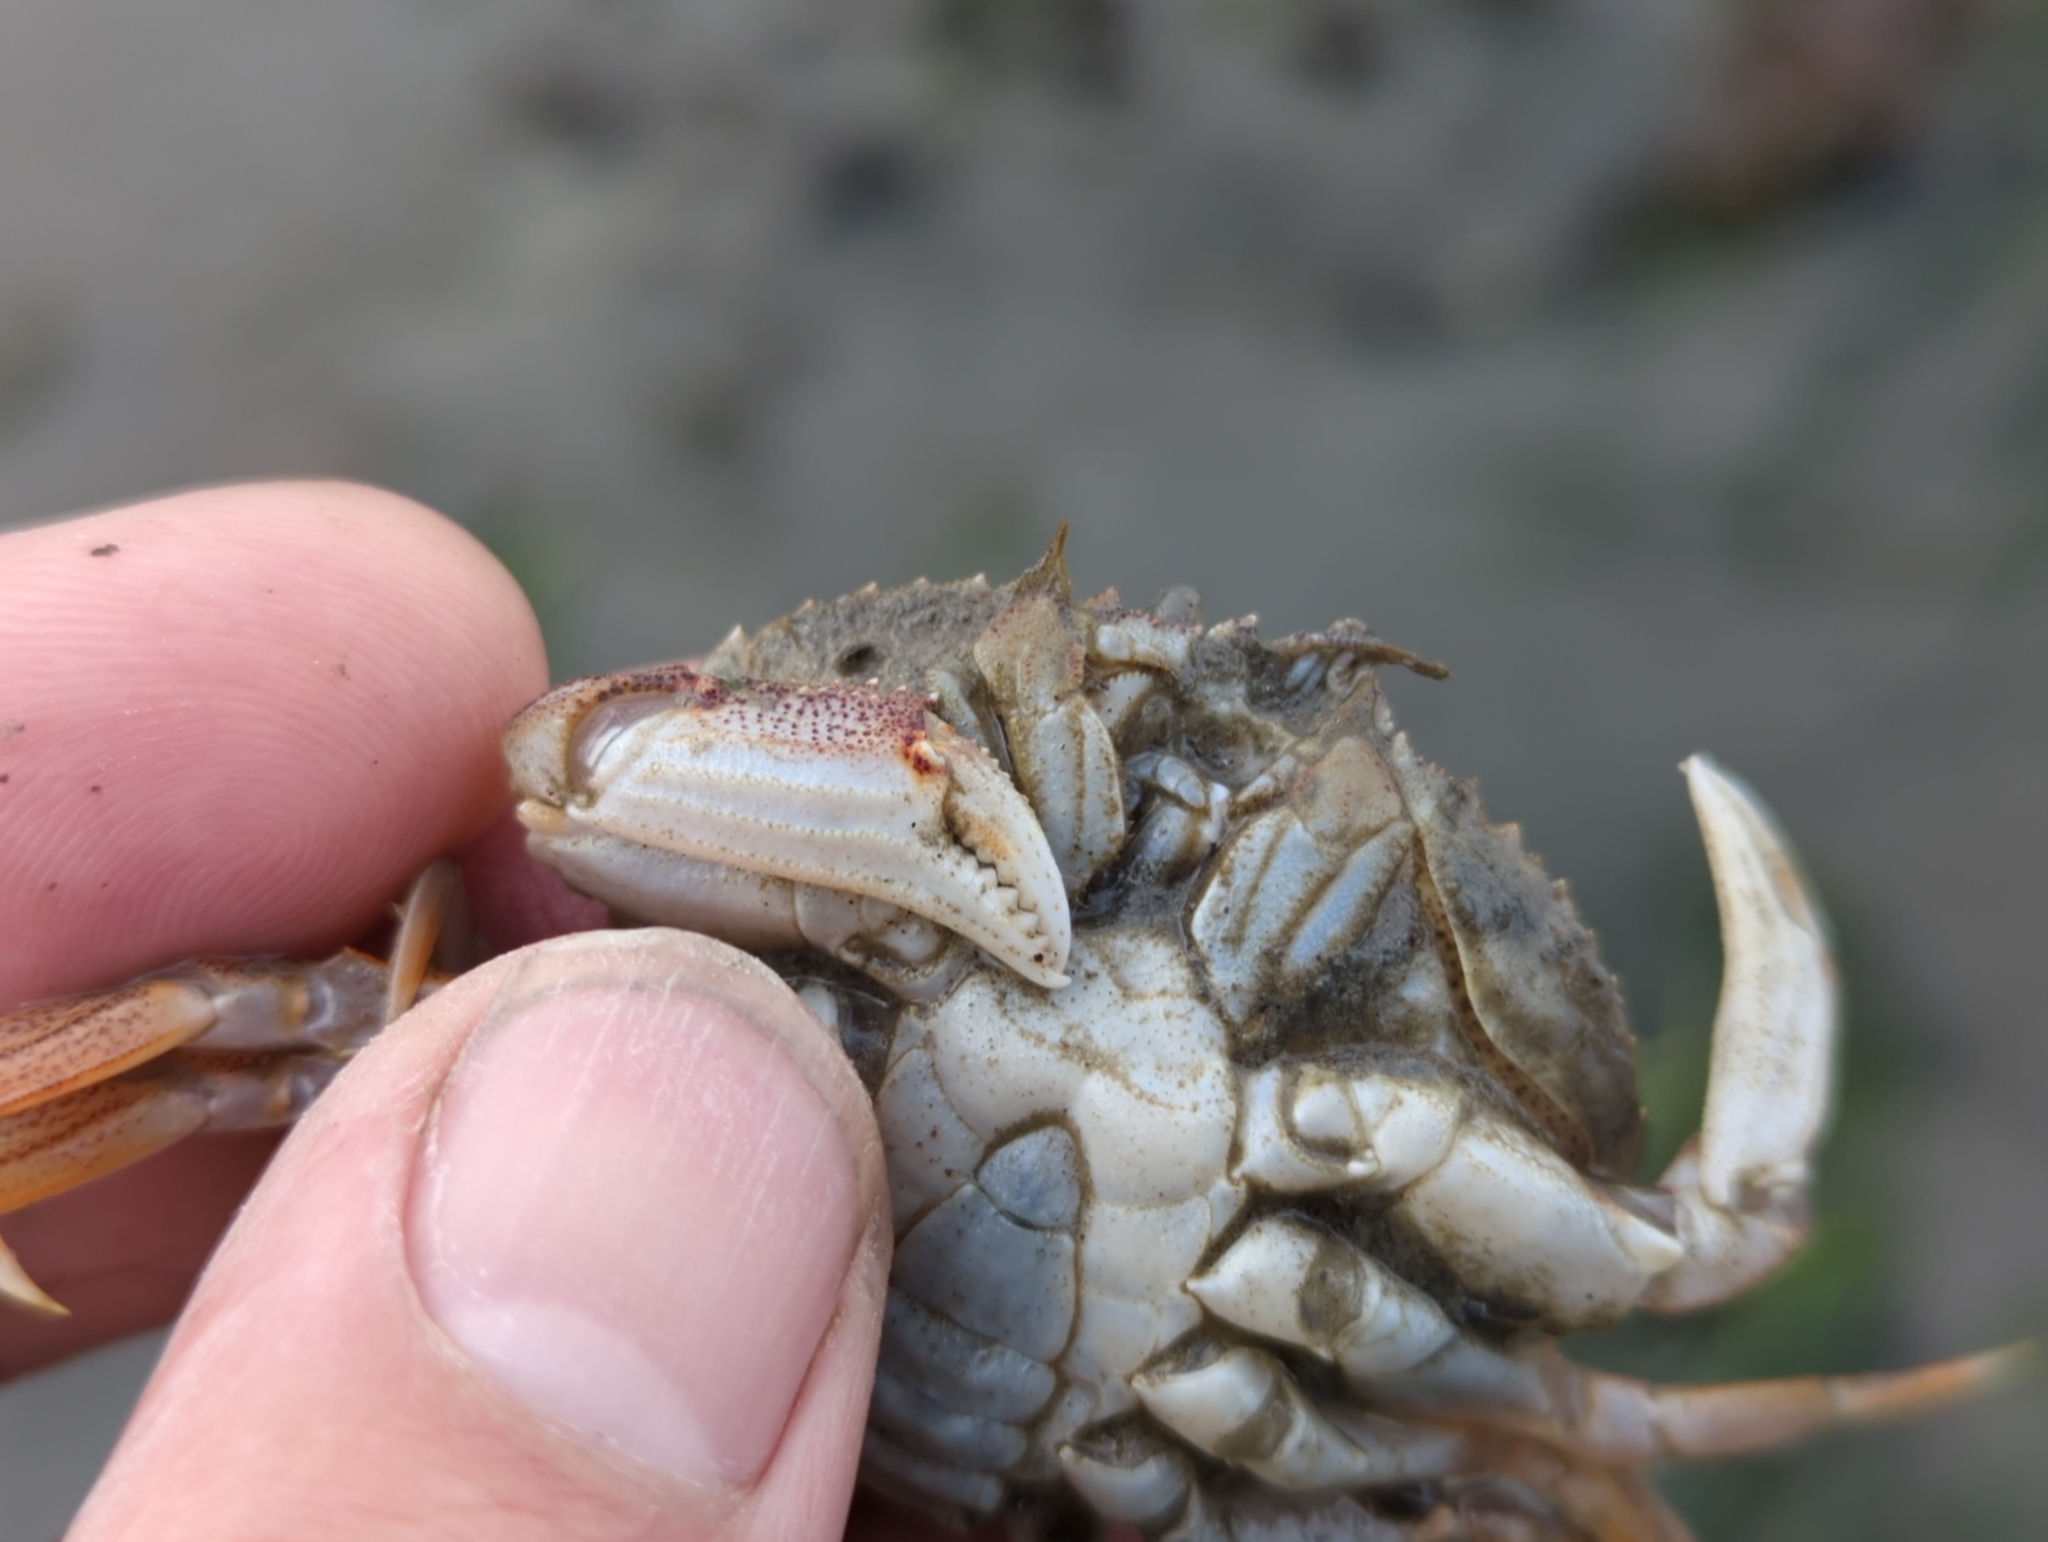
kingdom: Animalia
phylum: Arthropoda
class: Malacostraca
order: Decapoda
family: Cancridae
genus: Metacarcinus
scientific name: Metacarcinus magister
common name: Californian crab
